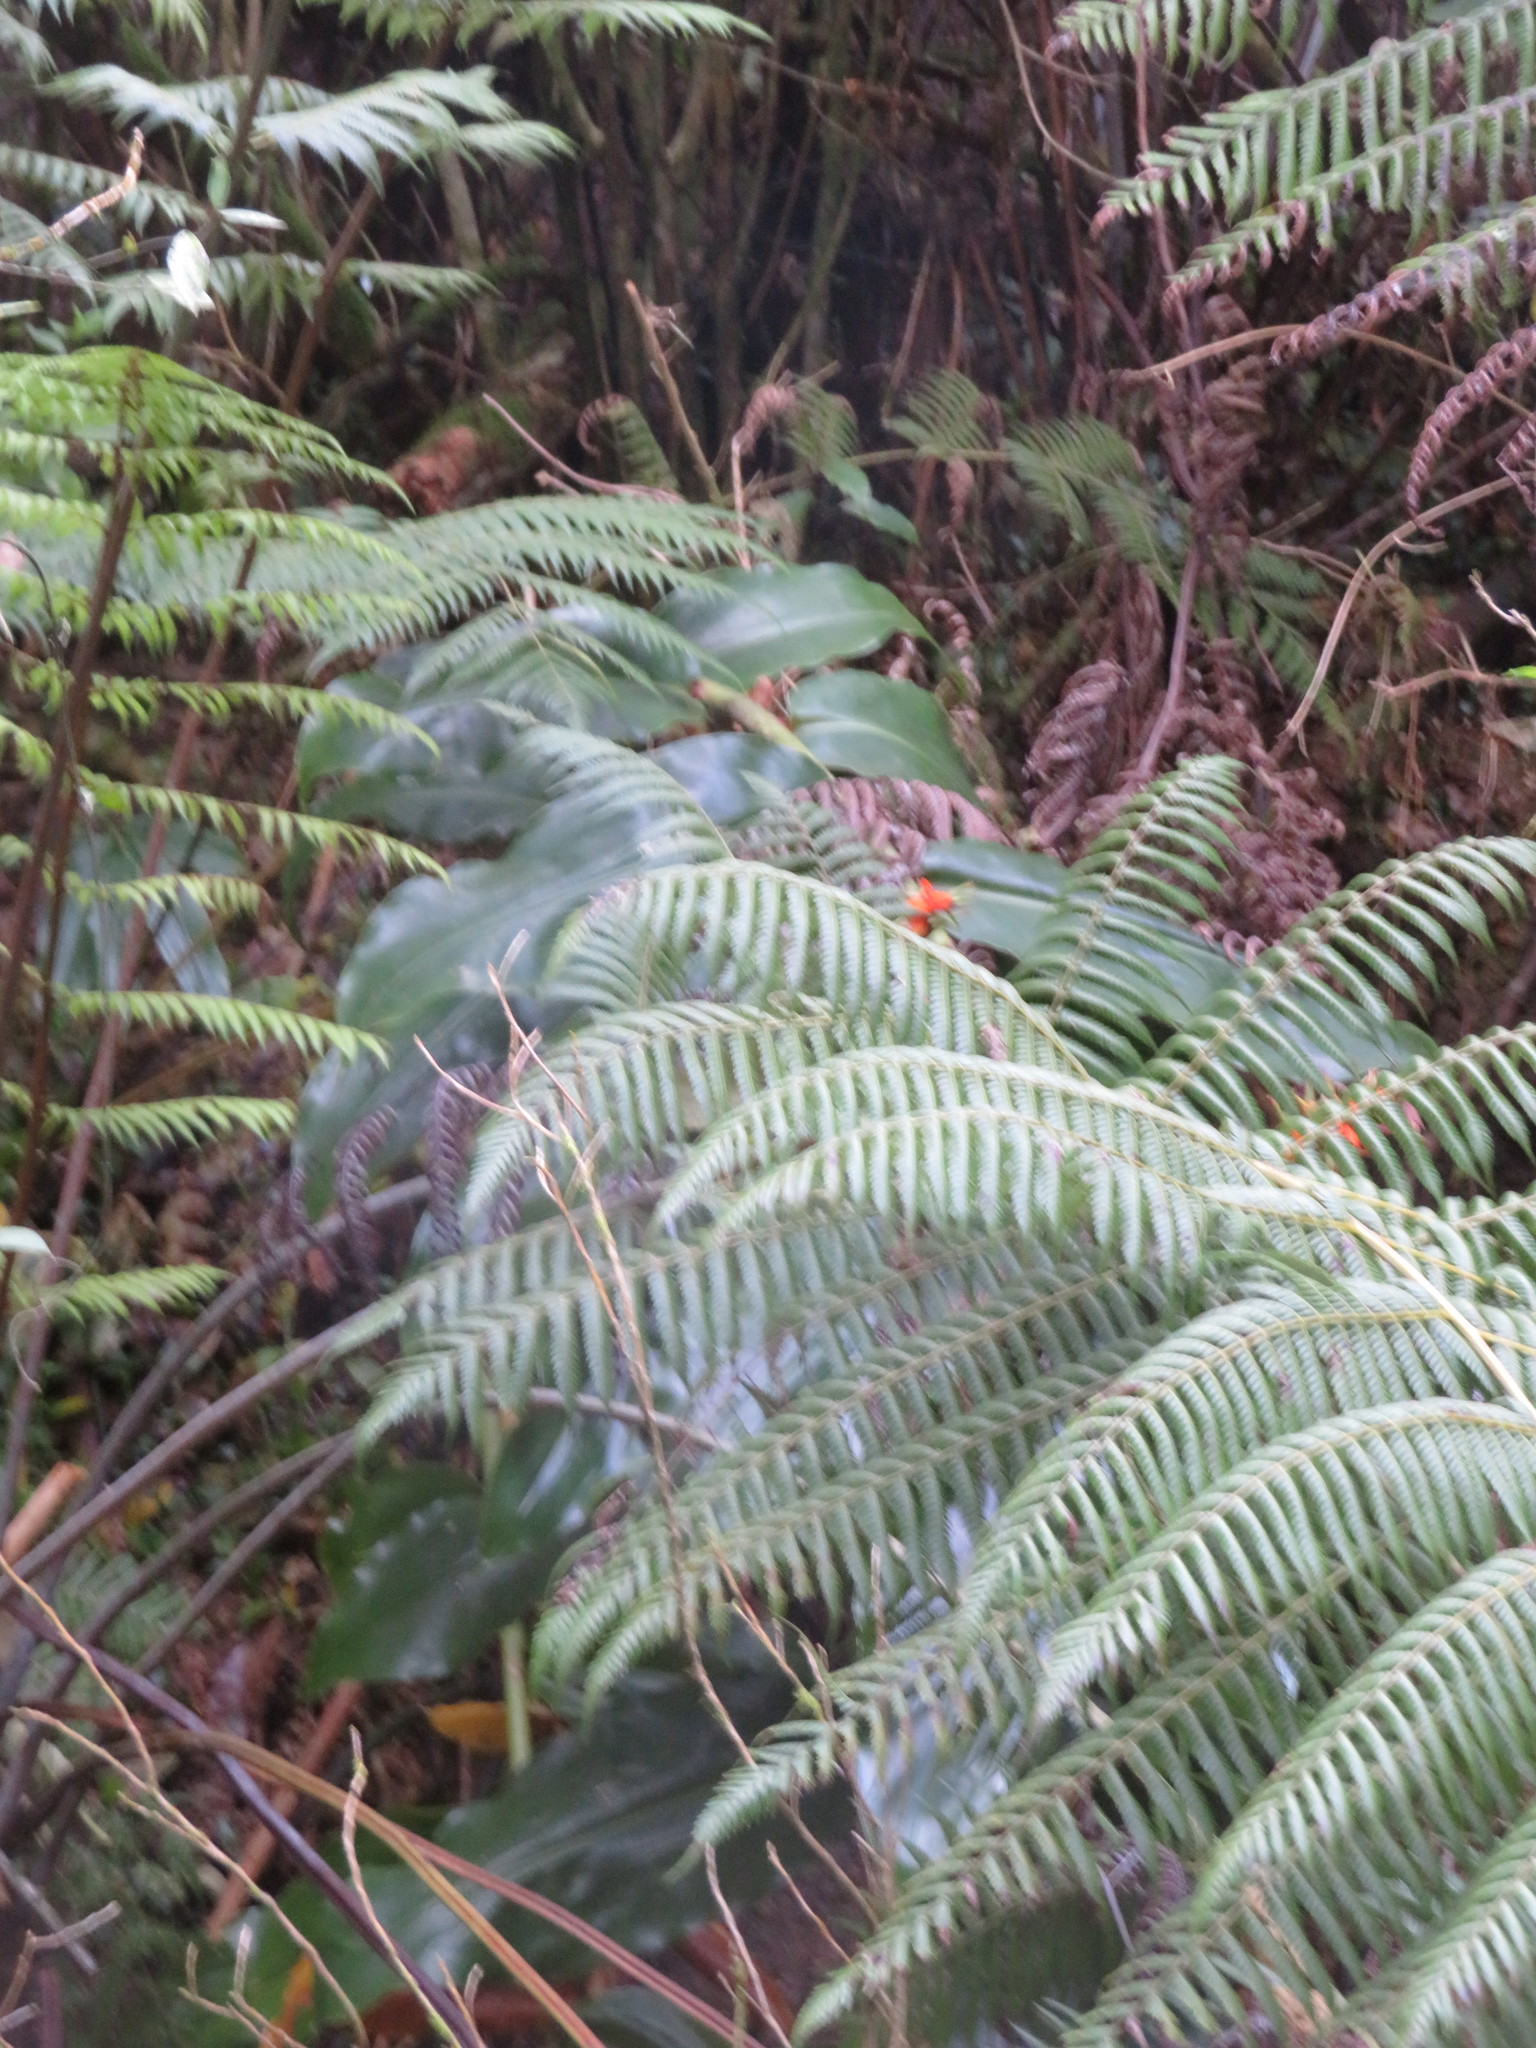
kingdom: Plantae
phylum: Tracheophyta
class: Liliopsida
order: Zingiberales
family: Zingiberaceae
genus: Hedychium
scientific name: Hedychium gardnerianum
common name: Himalayan ginger
